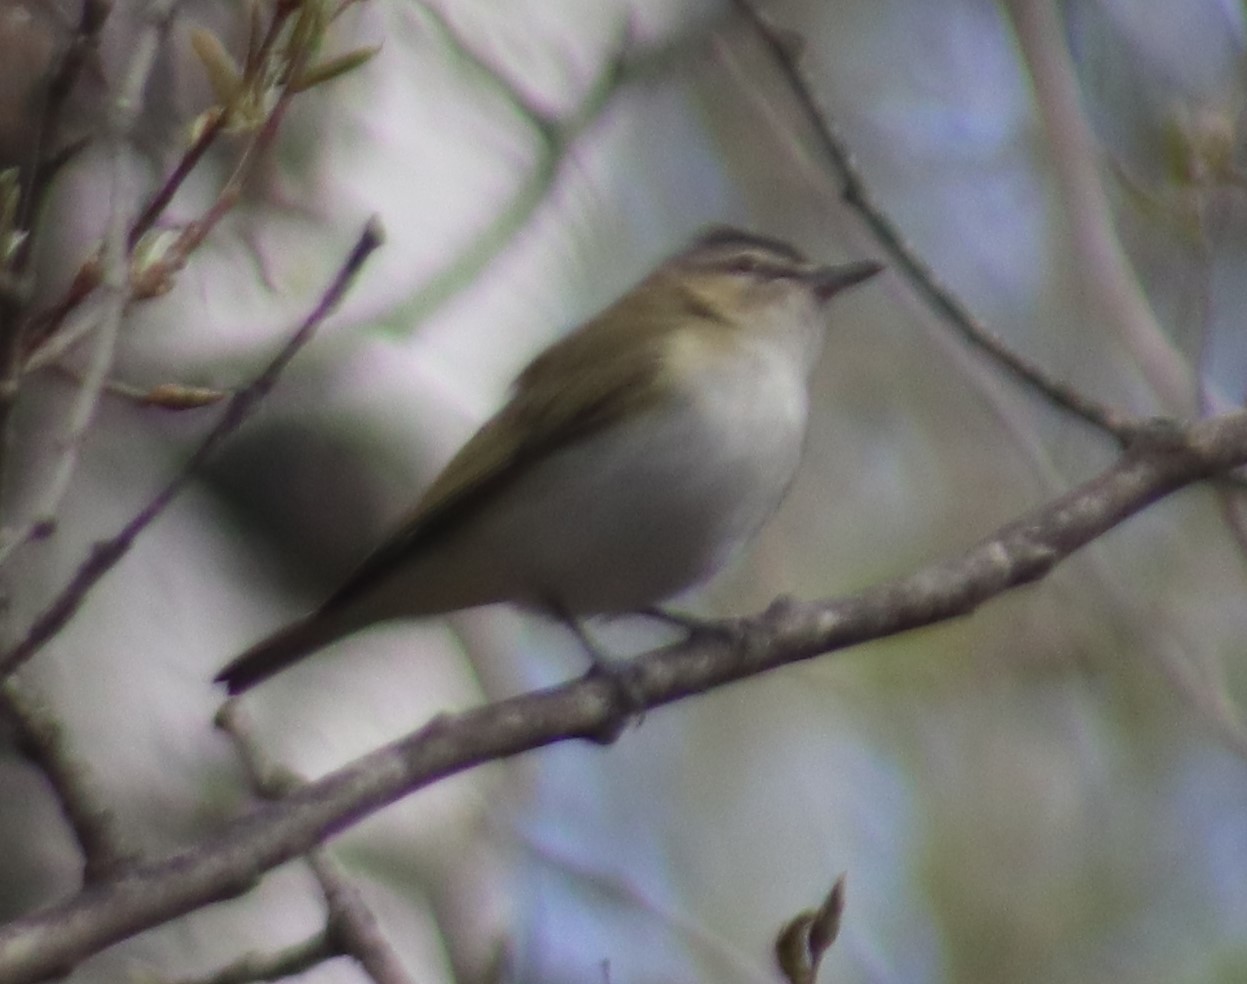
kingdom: Animalia
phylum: Chordata
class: Aves
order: Passeriformes
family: Vireonidae
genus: Vireo
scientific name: Vireo olivaceus
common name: Red-eyed vireo
